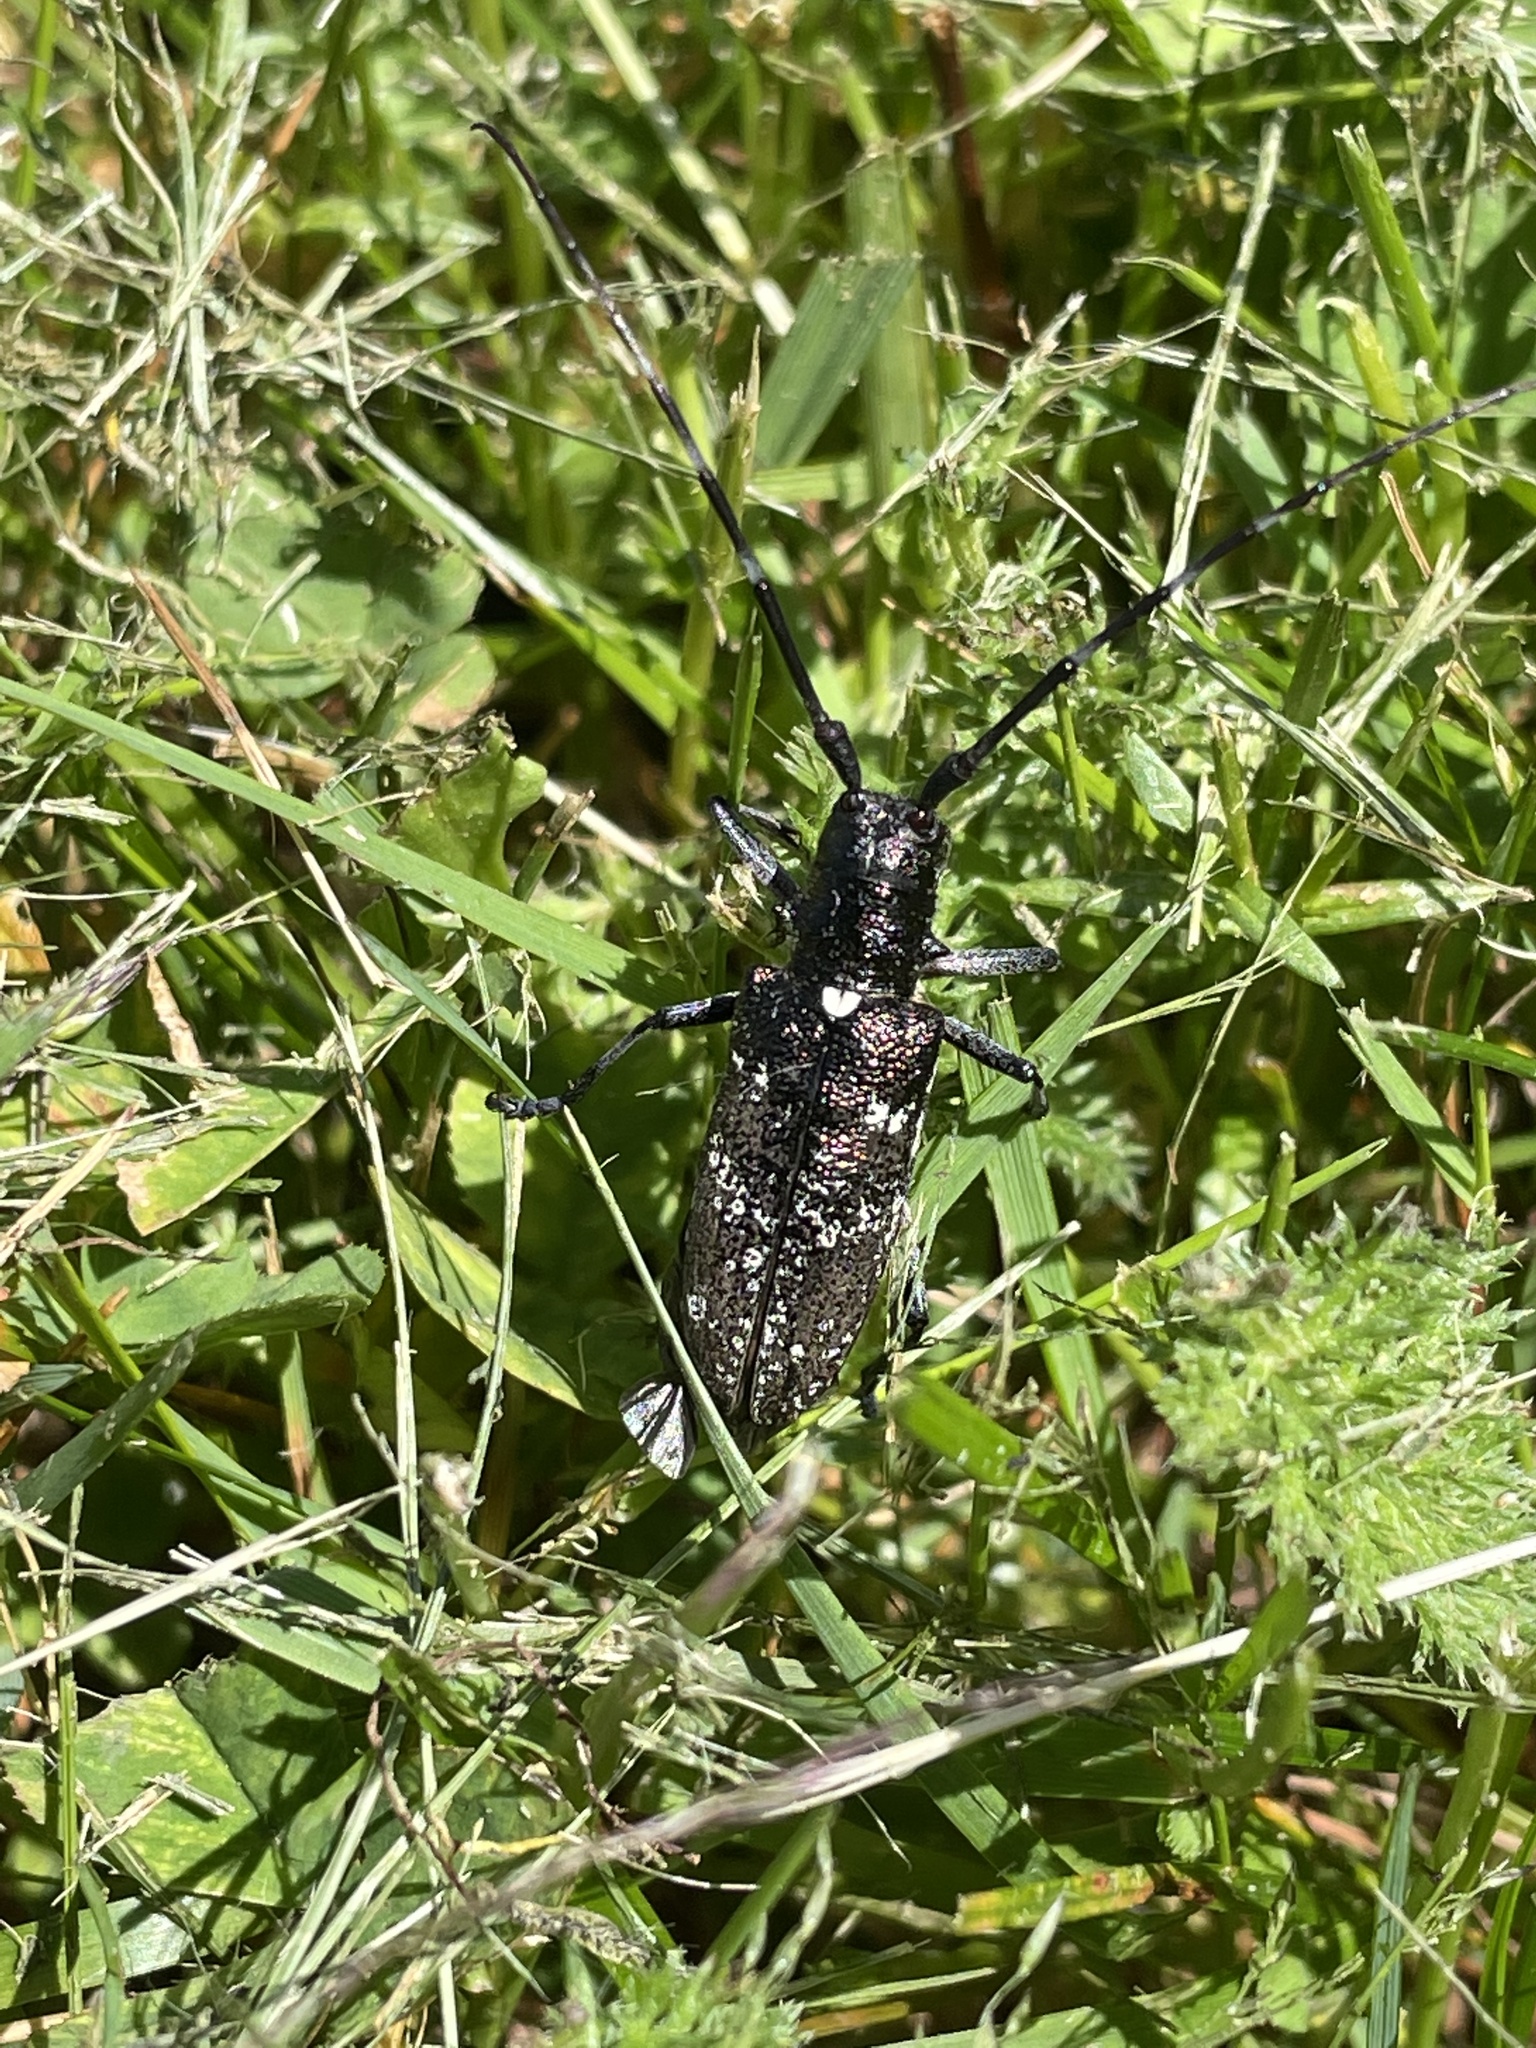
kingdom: Animalia
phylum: Arthropoda
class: Insecta
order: Coleoptera
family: Cerambycidae
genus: Monochamus
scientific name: Monochamus scutellatus
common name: White-spotted sawyer beetle
